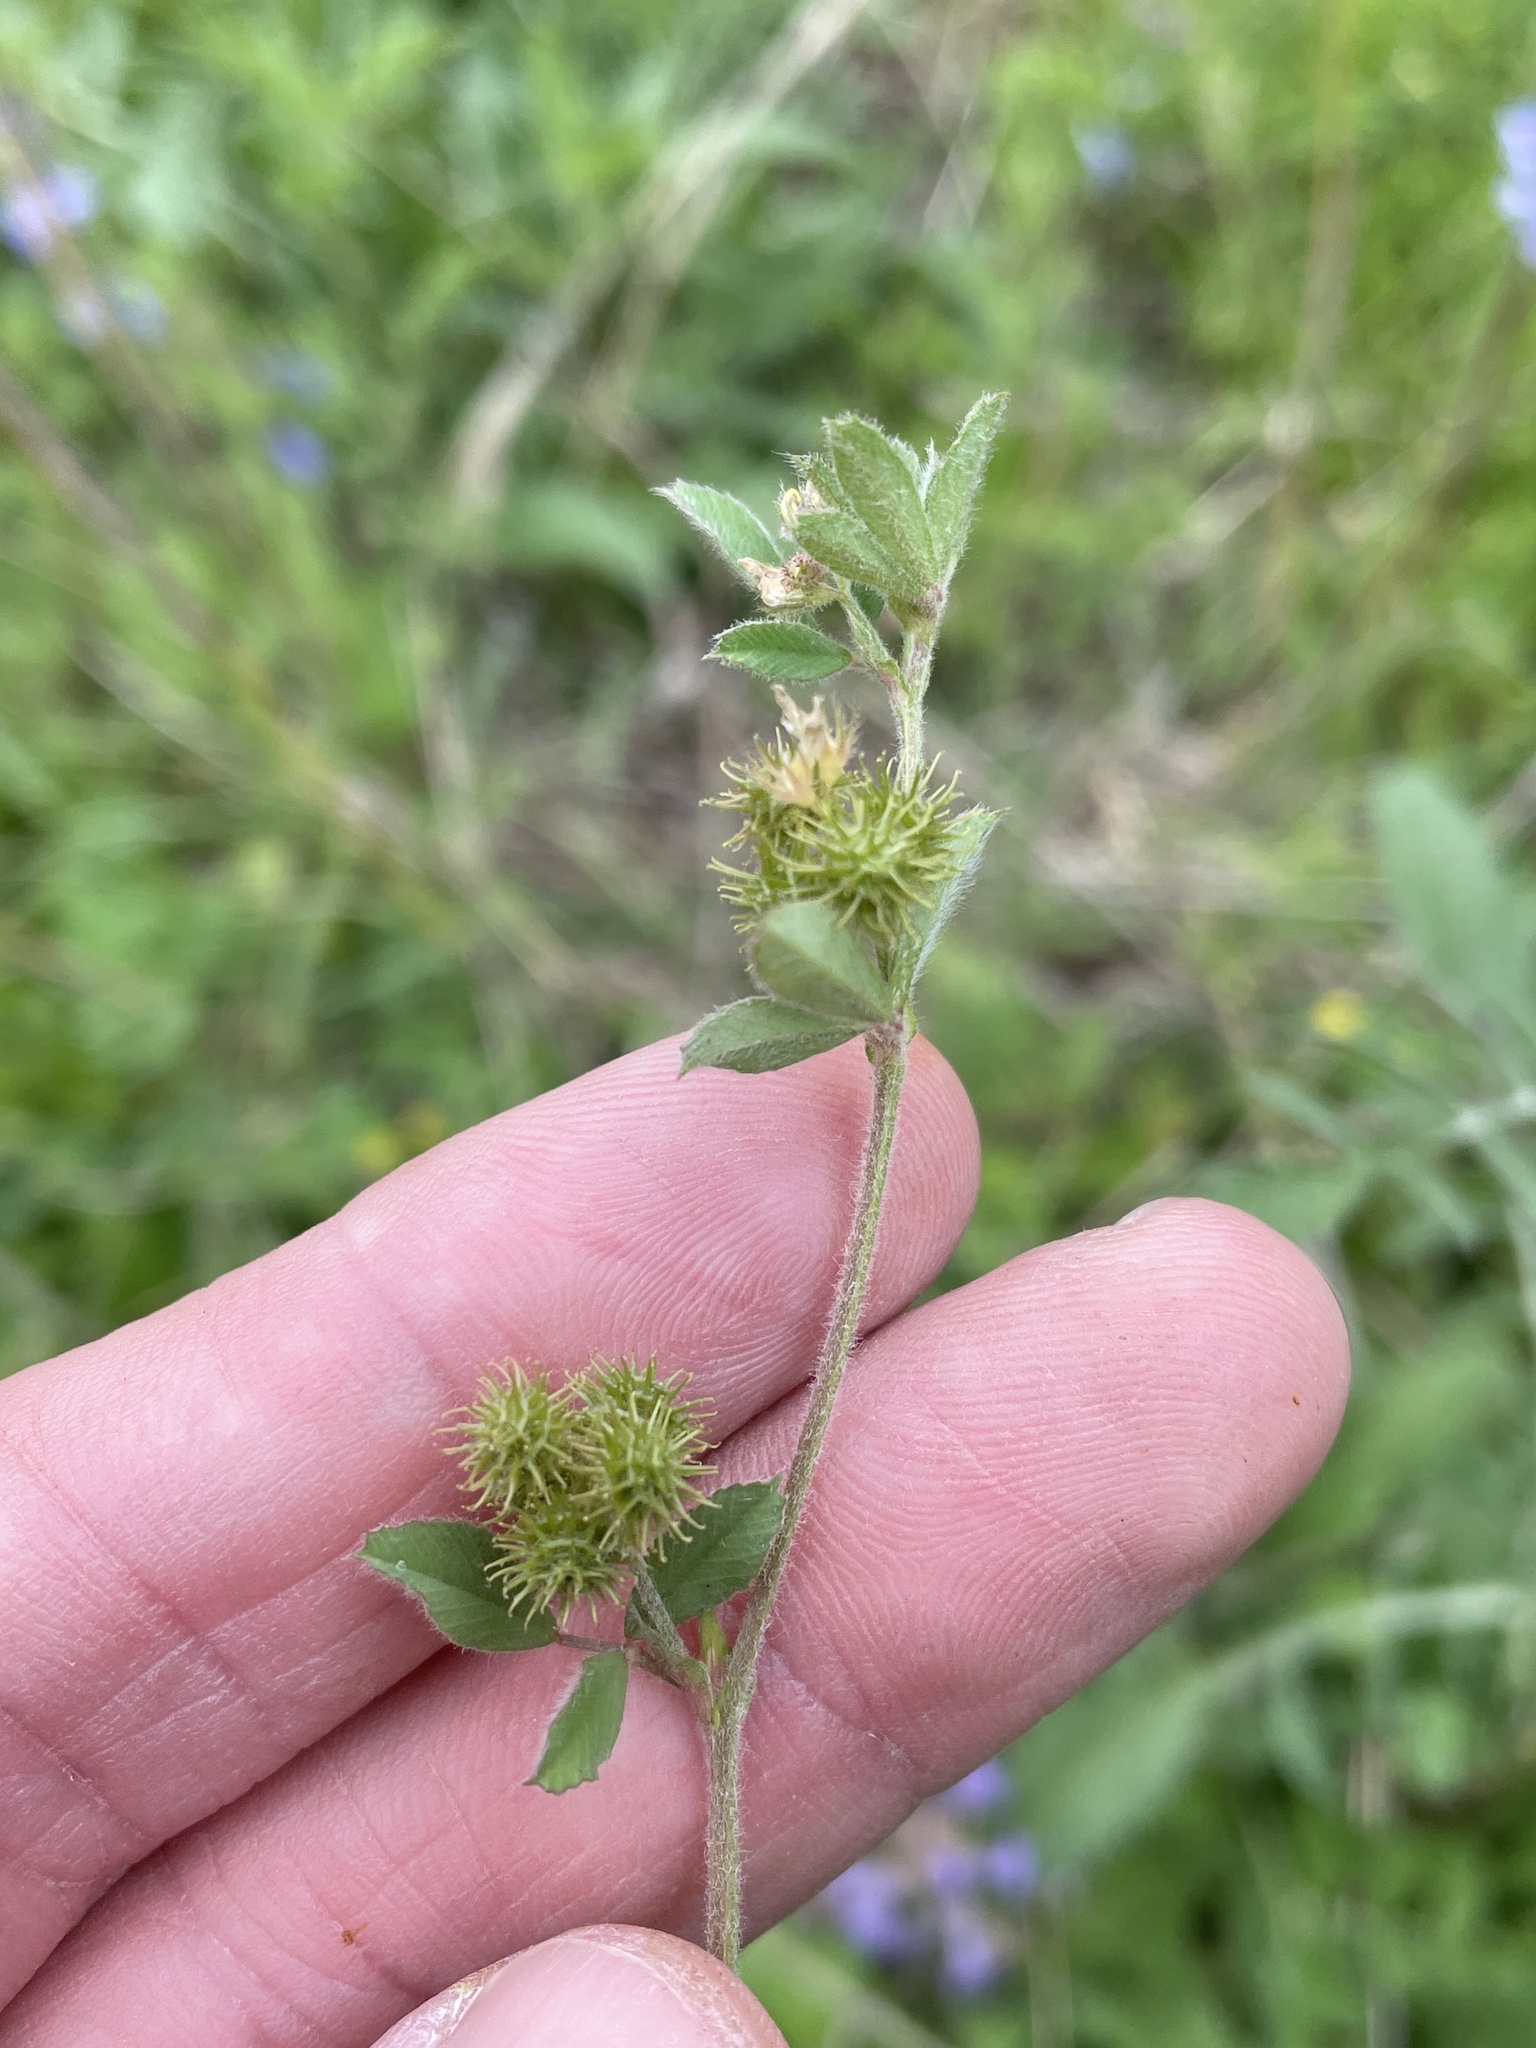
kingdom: Plantae
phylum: Tracheophyta
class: Magnoliopsida
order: Fabales
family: Fabaceae
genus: Medicago
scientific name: Medicago minima
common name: Little bur-clover
